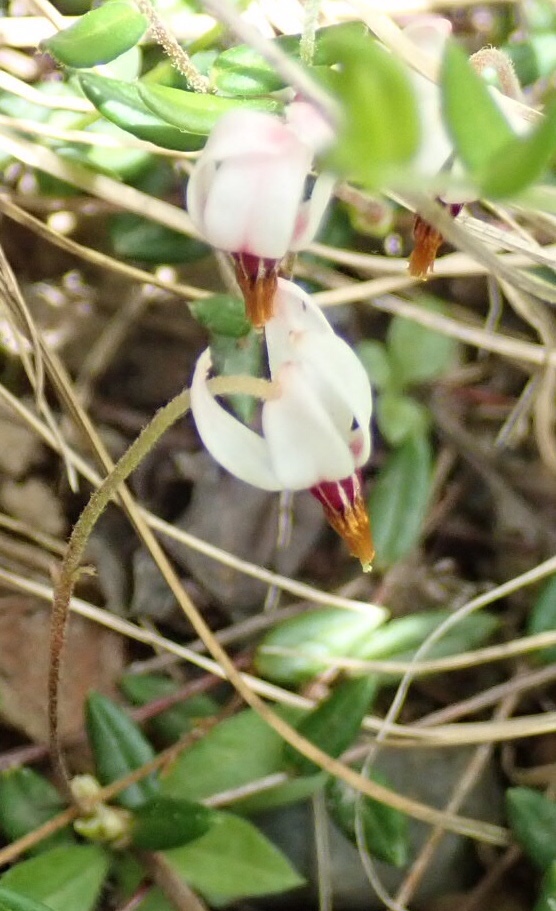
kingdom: Plantae
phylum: Tracheophyta
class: Magnoliopsida
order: Ericales
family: Ericaceae
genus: Vaccinium
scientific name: Vaccinium oxycoccos
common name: Cranberry
